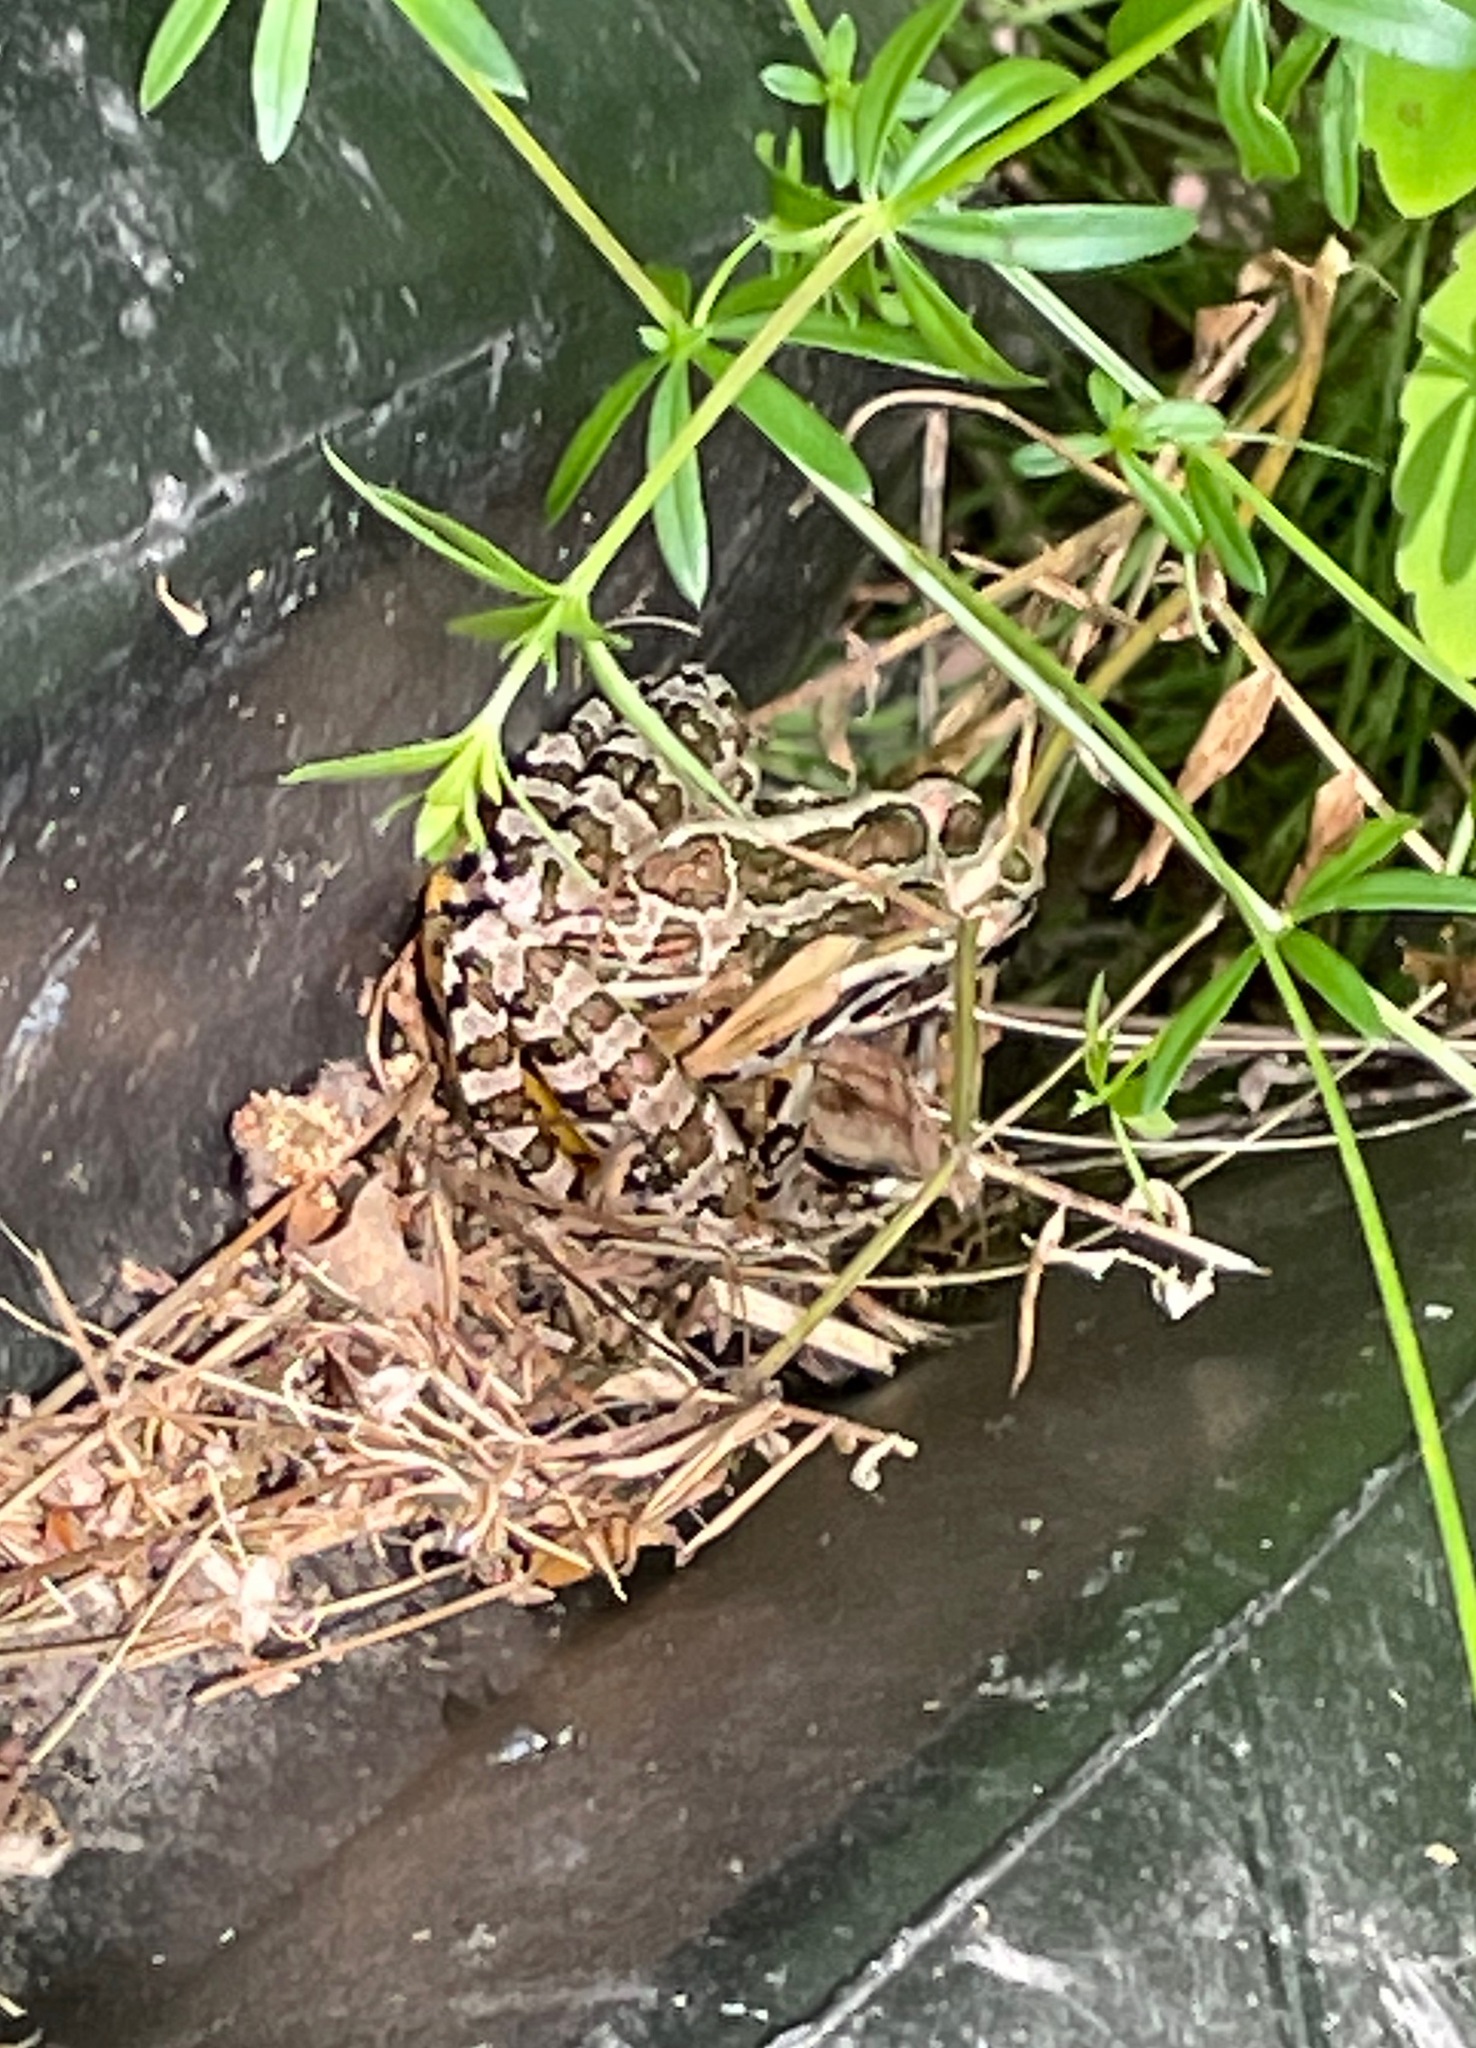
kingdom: Animalia
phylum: Chordata
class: Amphibia
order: Anura
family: Ranidae
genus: Lithobates
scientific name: Lithobates palustris
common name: Pickerel frog
